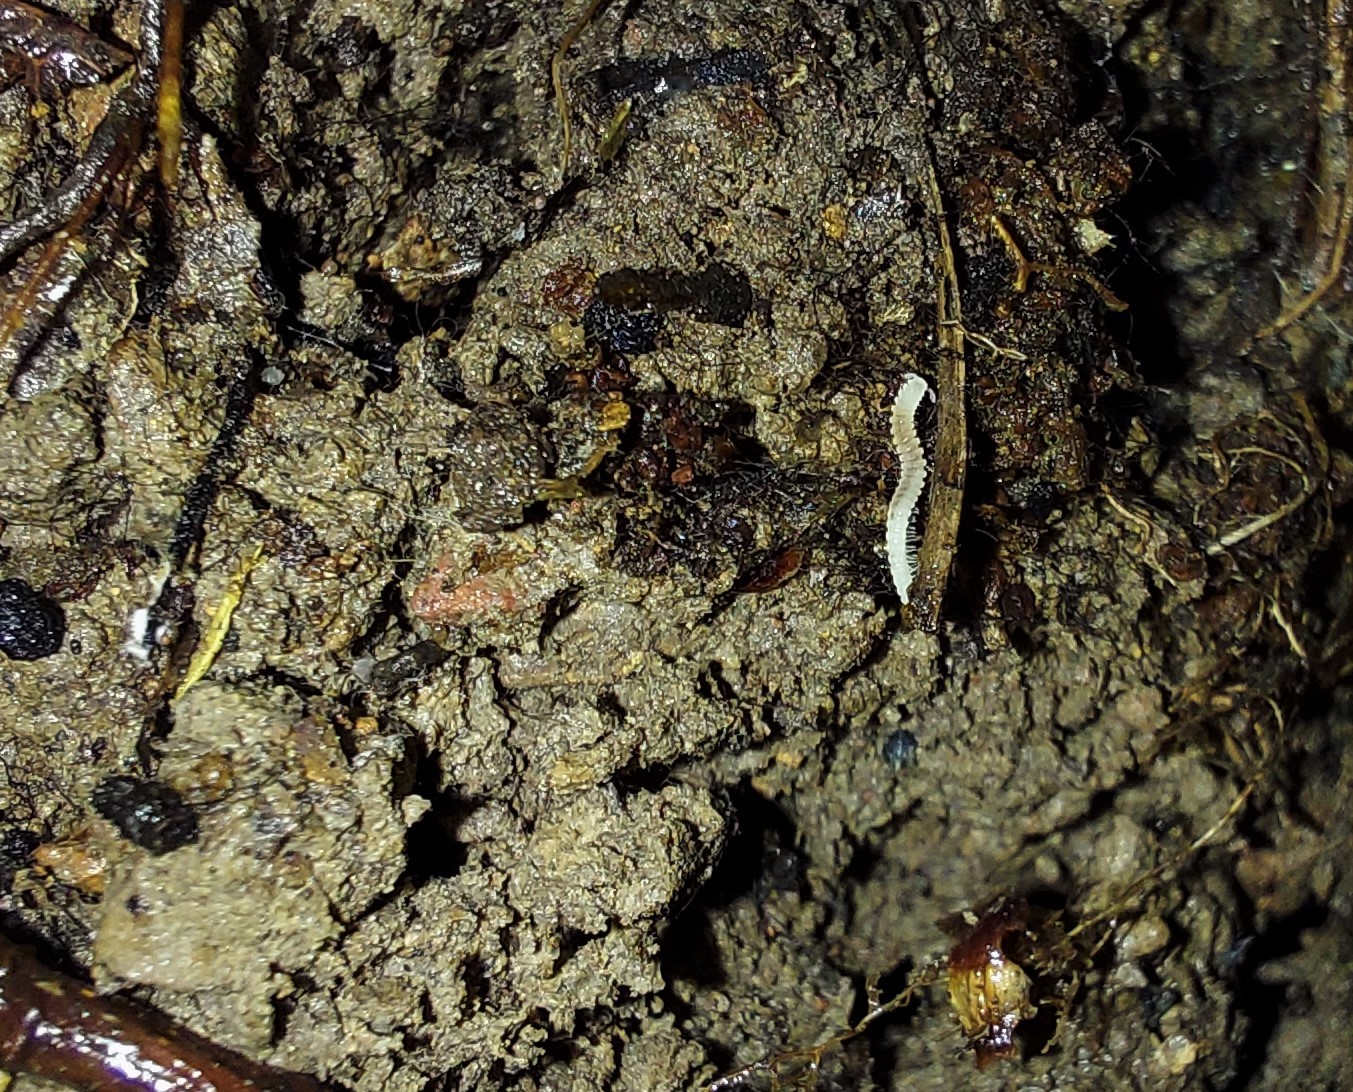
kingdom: Animalia
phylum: Arthropoda
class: Diplopoda
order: Chordeumatida
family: Buotidae
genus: Buotus
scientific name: Buotus carolinus
